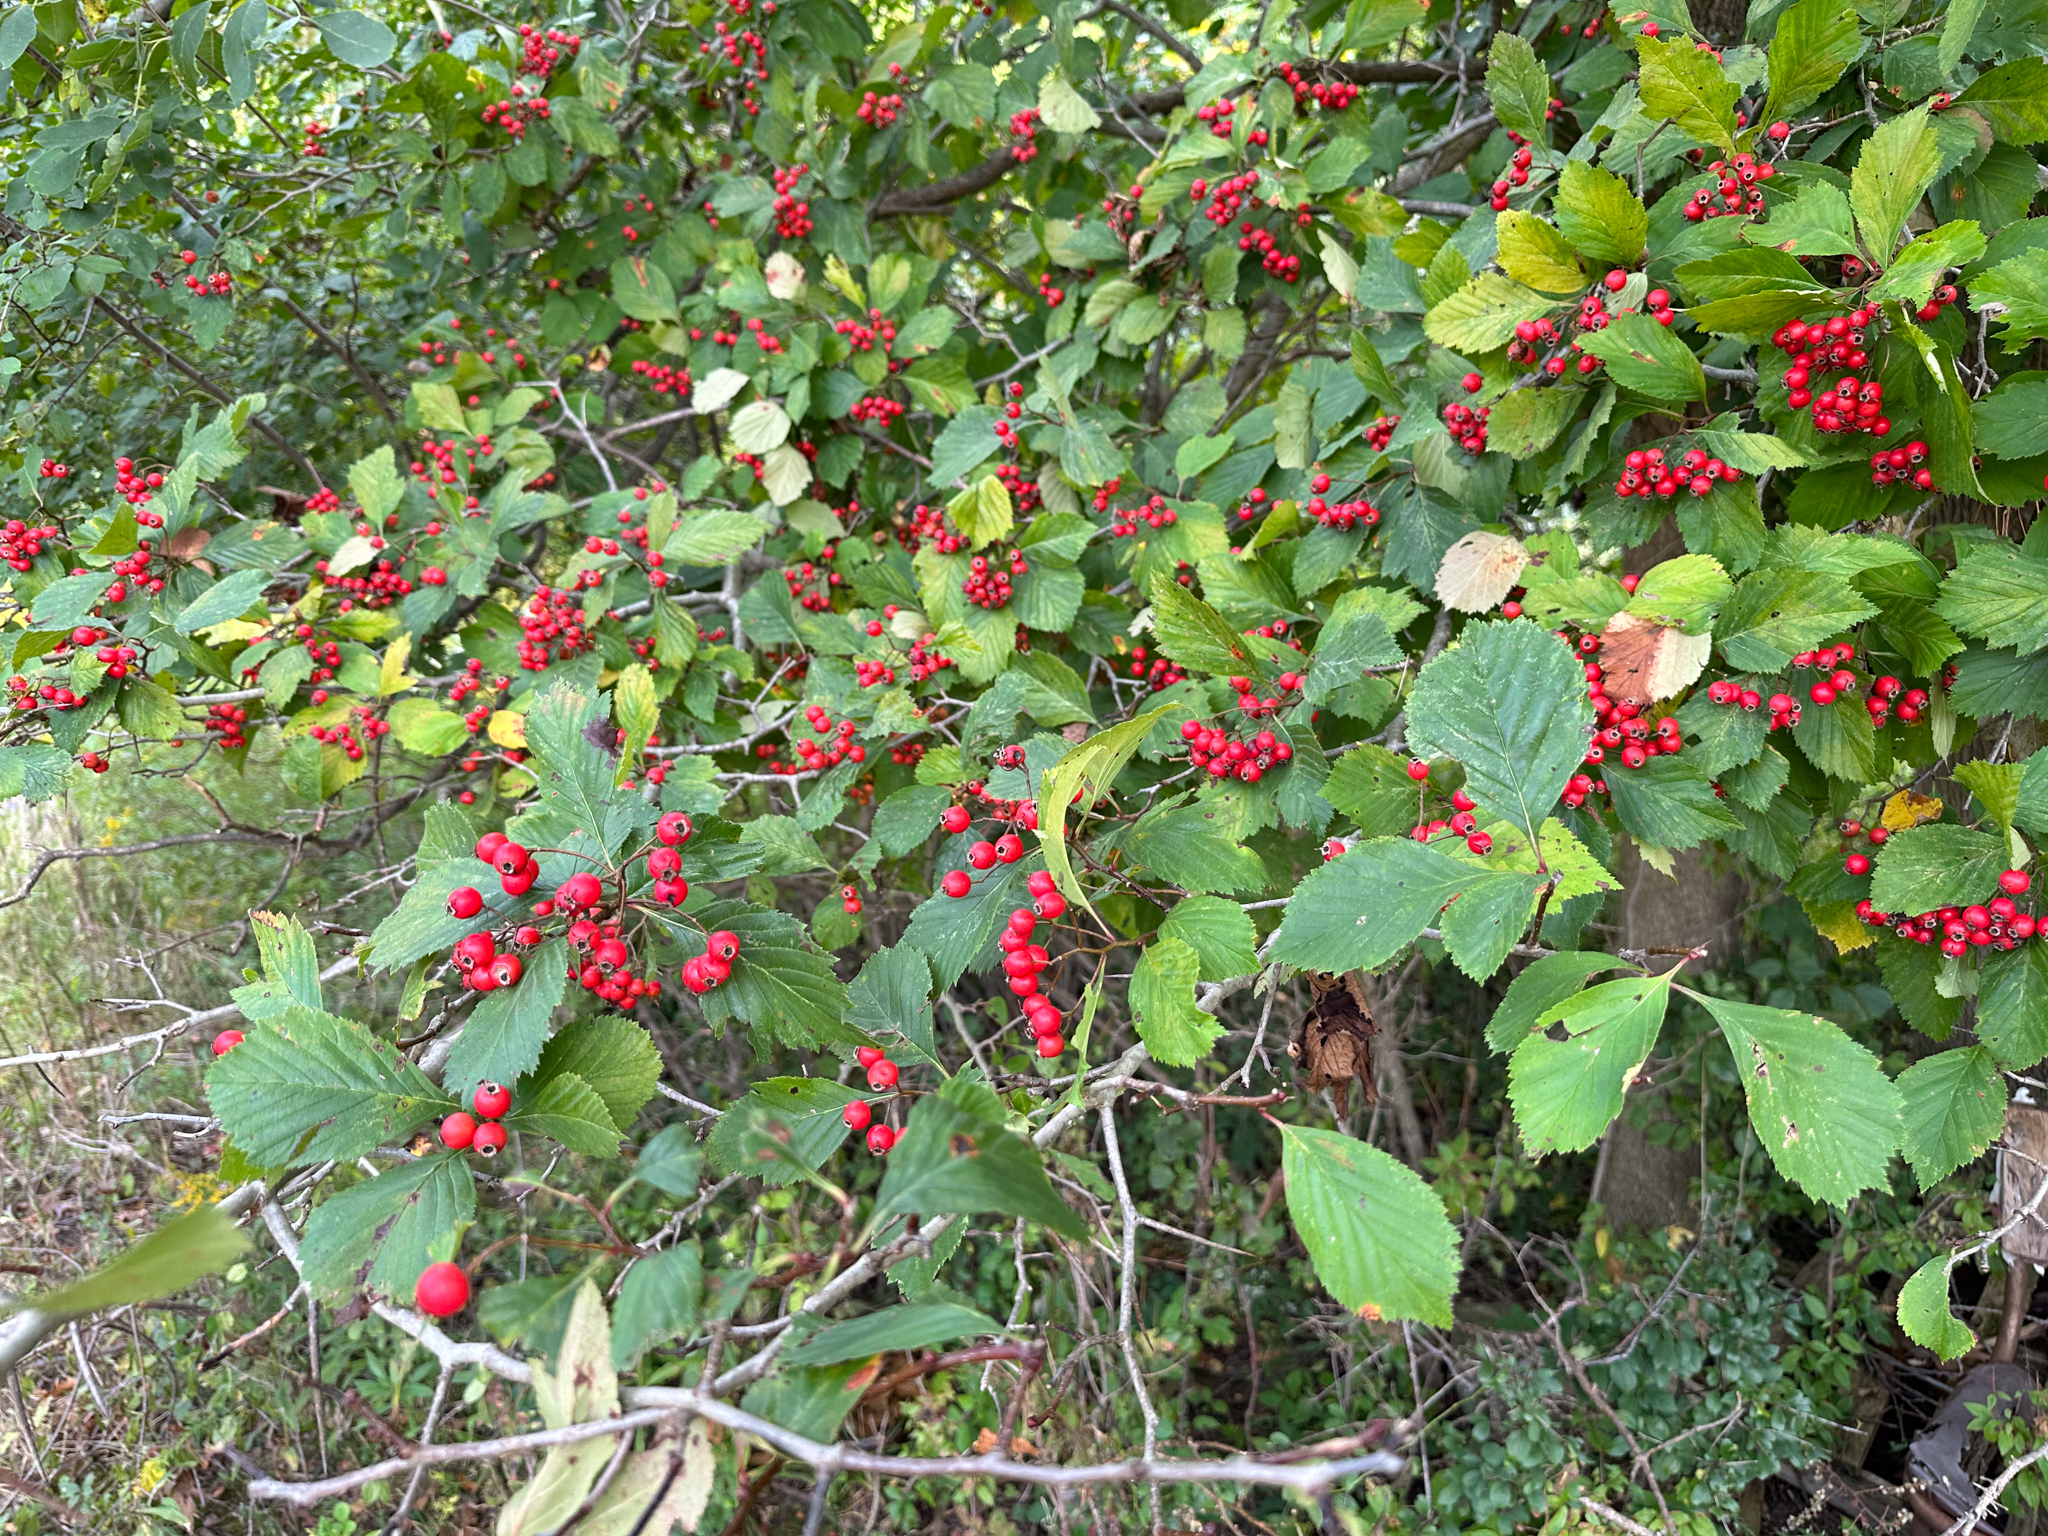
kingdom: Plantae
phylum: Tracheophyta
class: Magnoliopsida
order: Rosales
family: Rosaceae
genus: Crataegus
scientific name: Crataegus calpodendron
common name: Pear hawthorn
